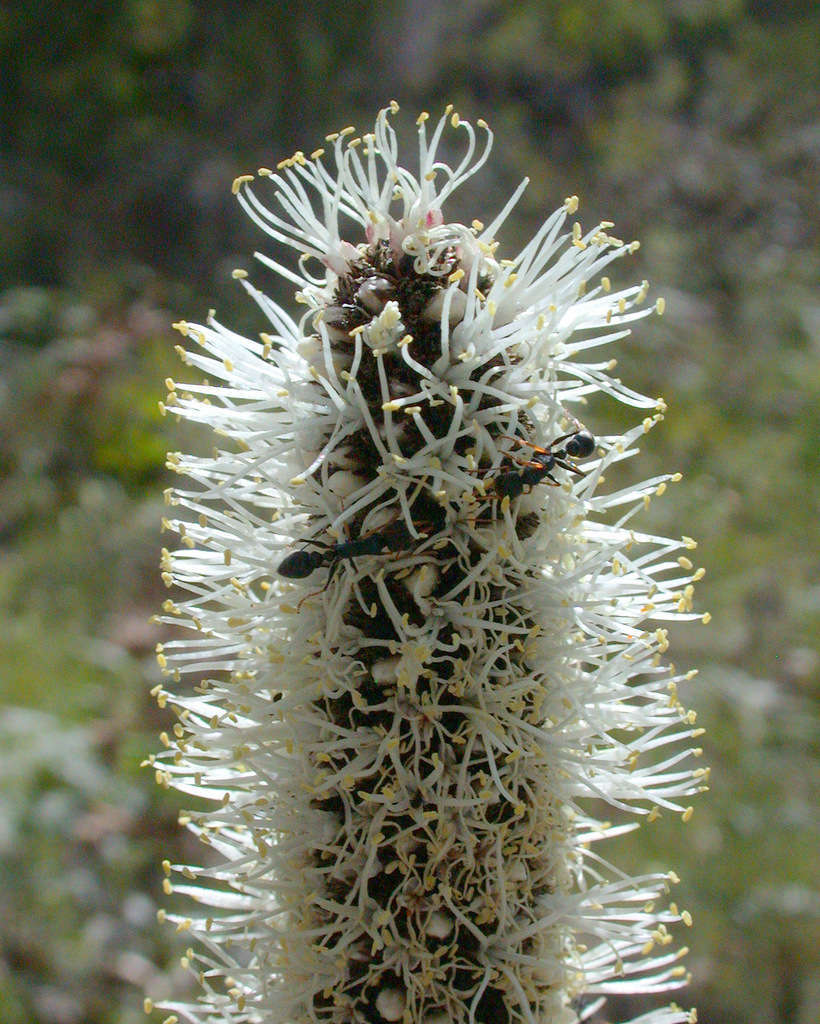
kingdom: Plantae
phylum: Tracheophyta
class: Liliopsida
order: Asparagales
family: Asphodelaceae
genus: Xanthorrhoea
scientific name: Xanthorrhoea minor
